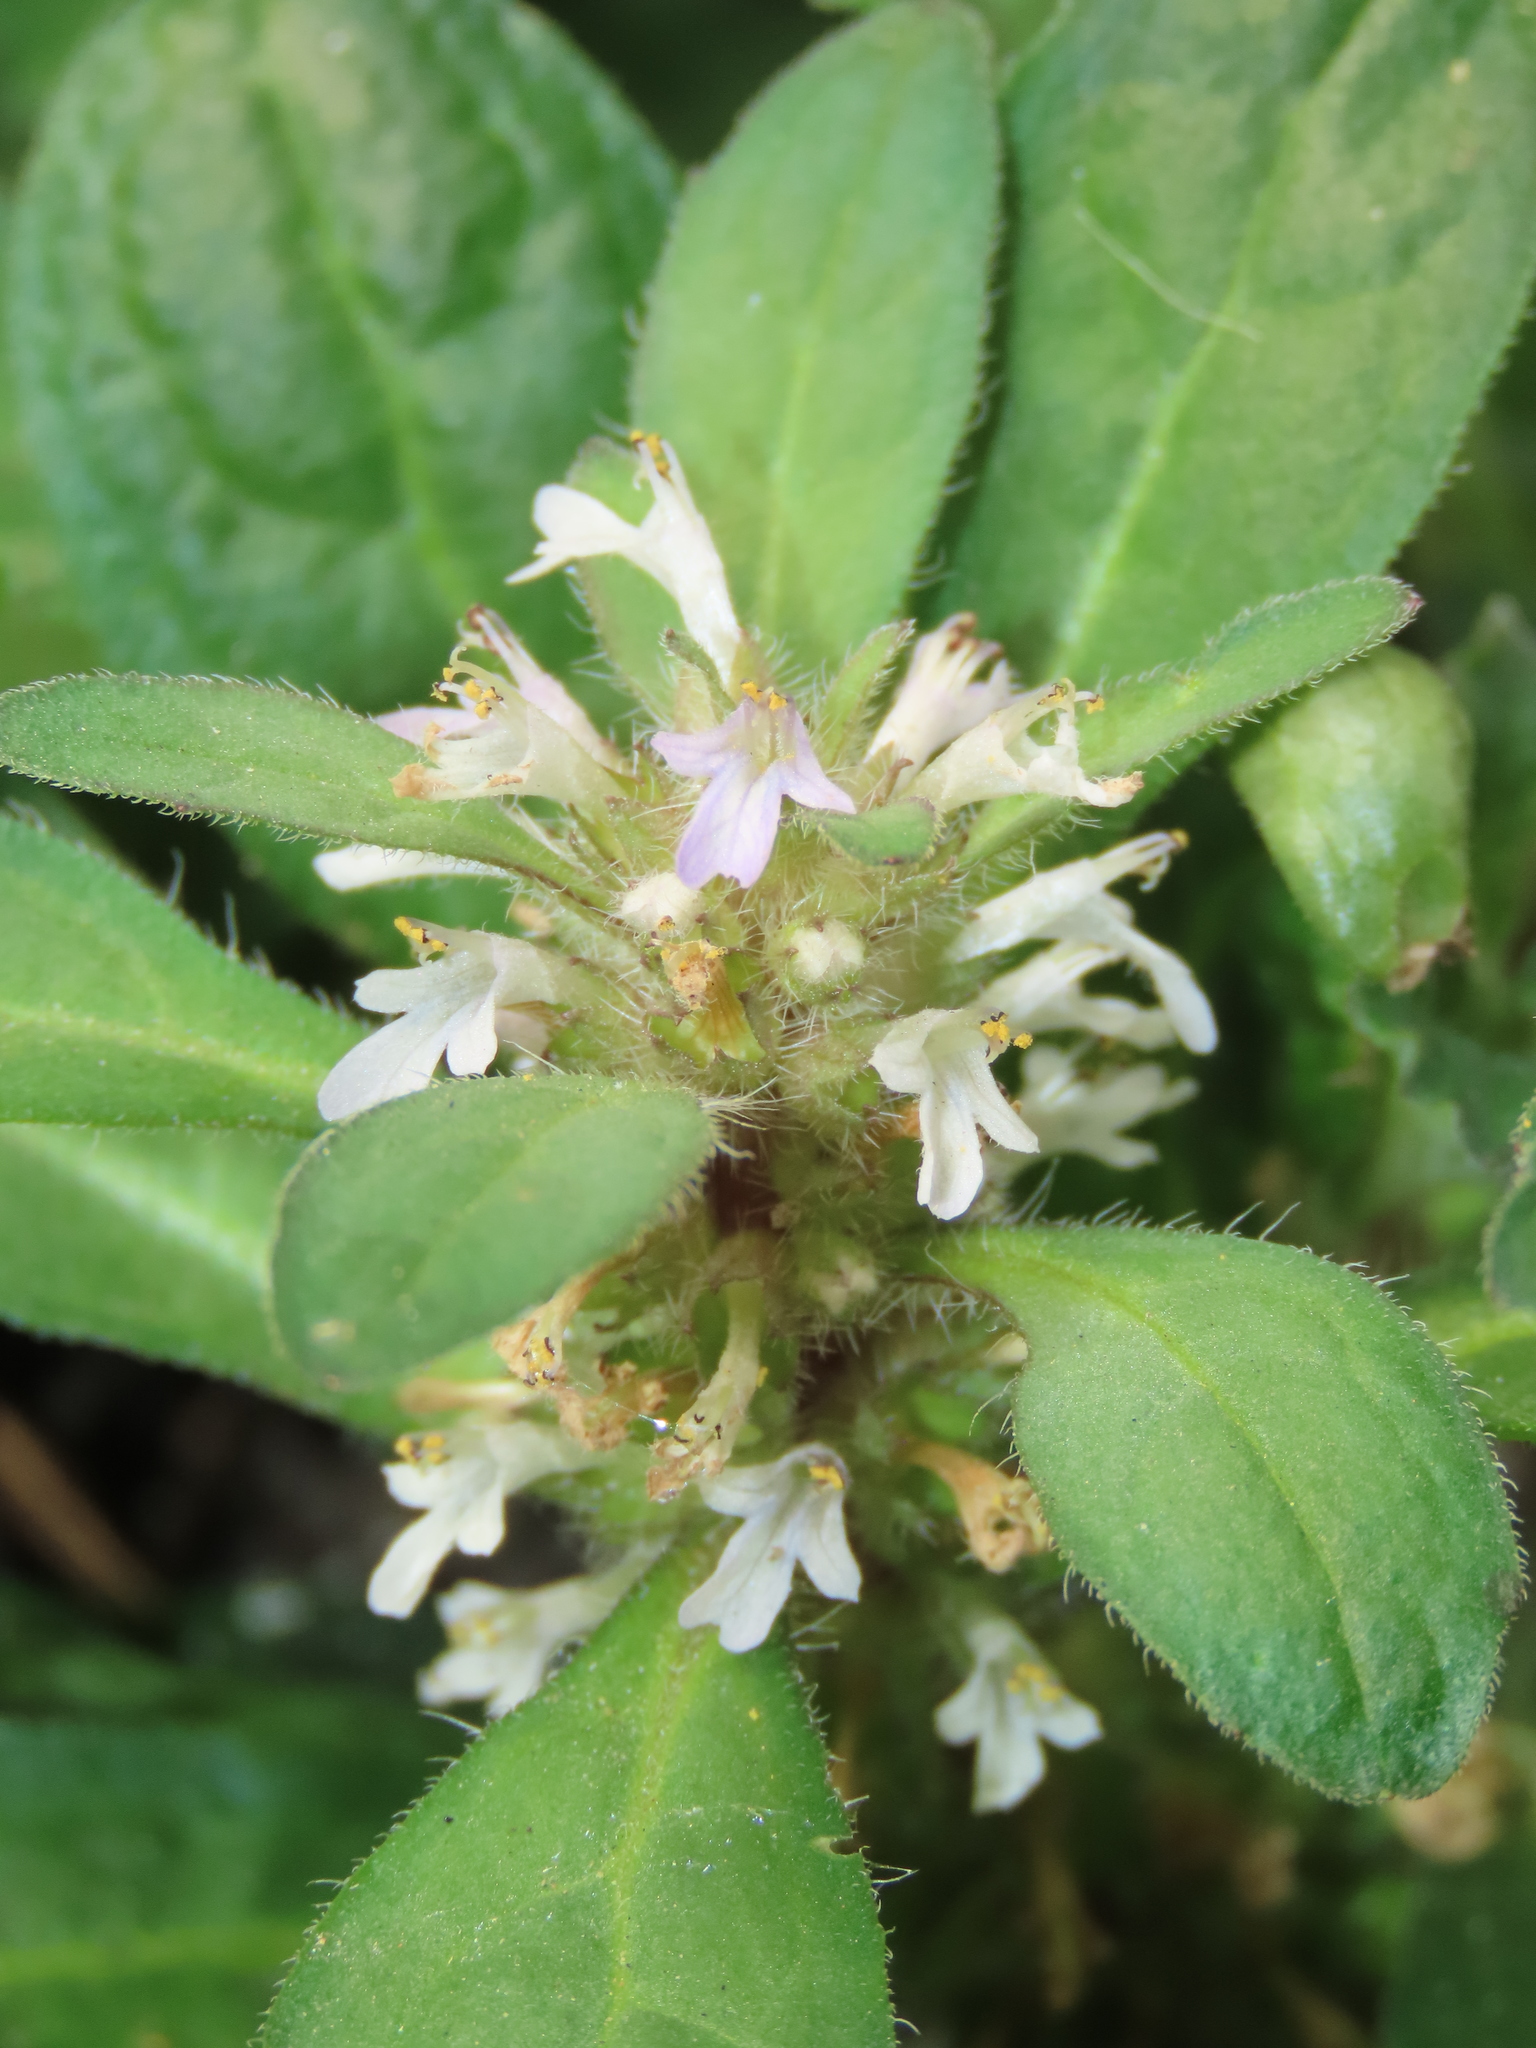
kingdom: Plantae
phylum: Tracheophyta
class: Magnoliopsida
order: Lamiales
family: Lamiaceae
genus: Ajuga
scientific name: Ajuga taiwanensis
